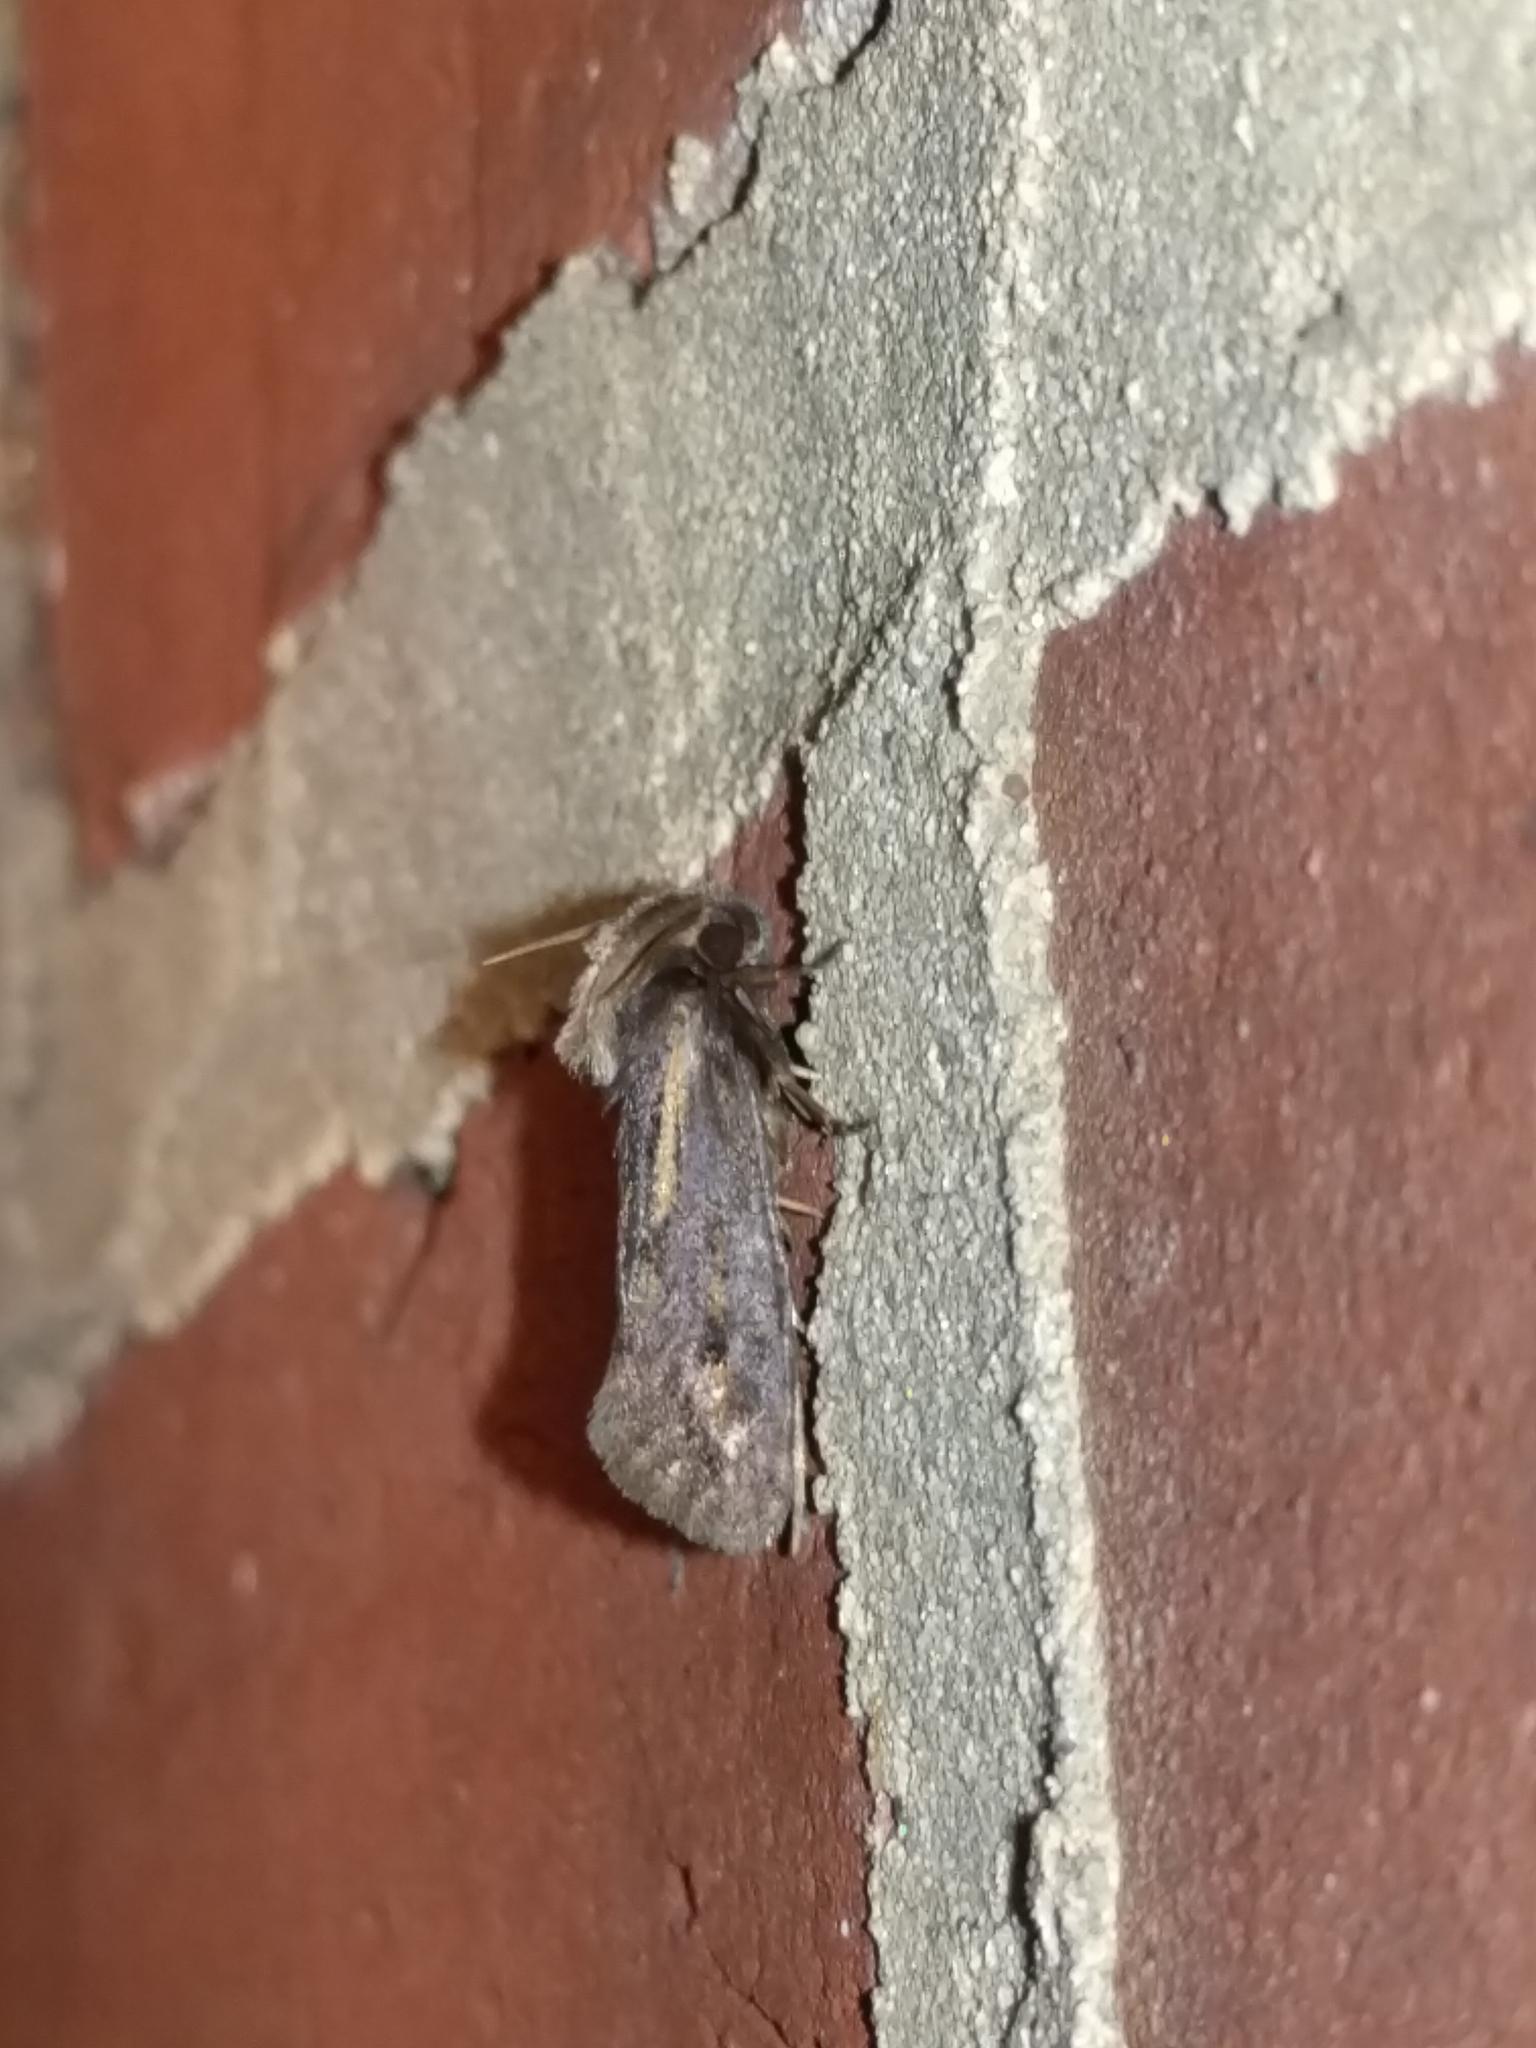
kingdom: Animalia
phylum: Arthropoda
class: Insecta
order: Lepidoptera
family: Tineidae
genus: Acrolophus
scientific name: Acrolophus popeanella
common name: Clemens' grass tubeworm moth
